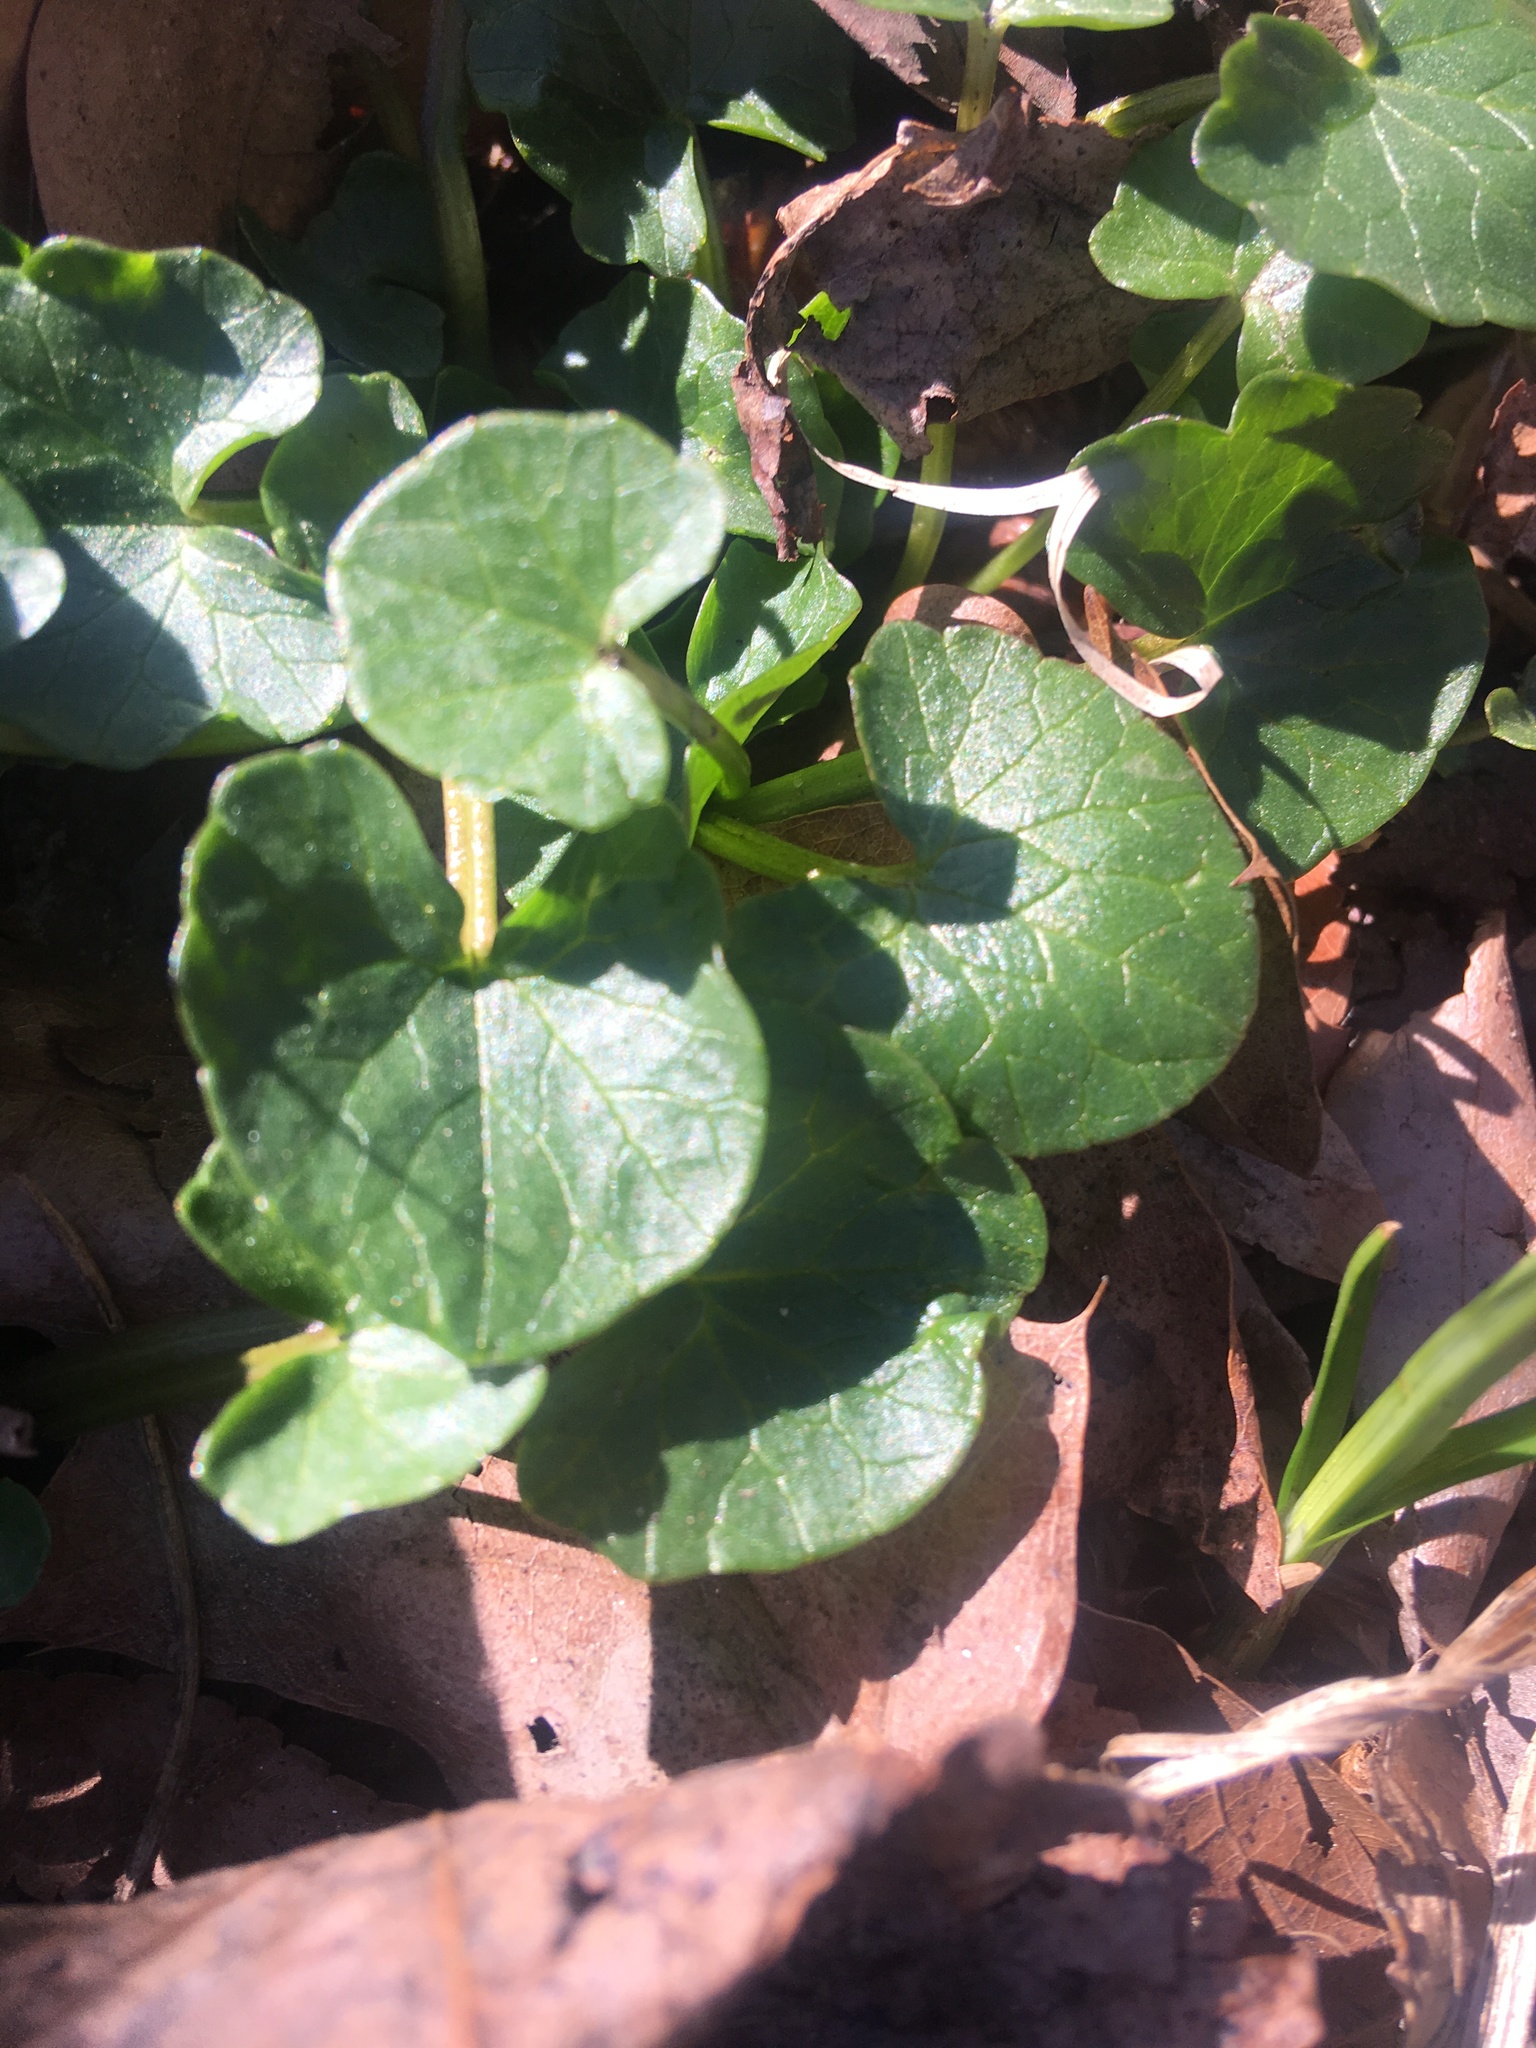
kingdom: Plantae
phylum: Tracheophyta
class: Magnoliopsida
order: Ranunculales
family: Ranunculaceae
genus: Ficaria
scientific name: Ficaria verna
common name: Lesser celandine
